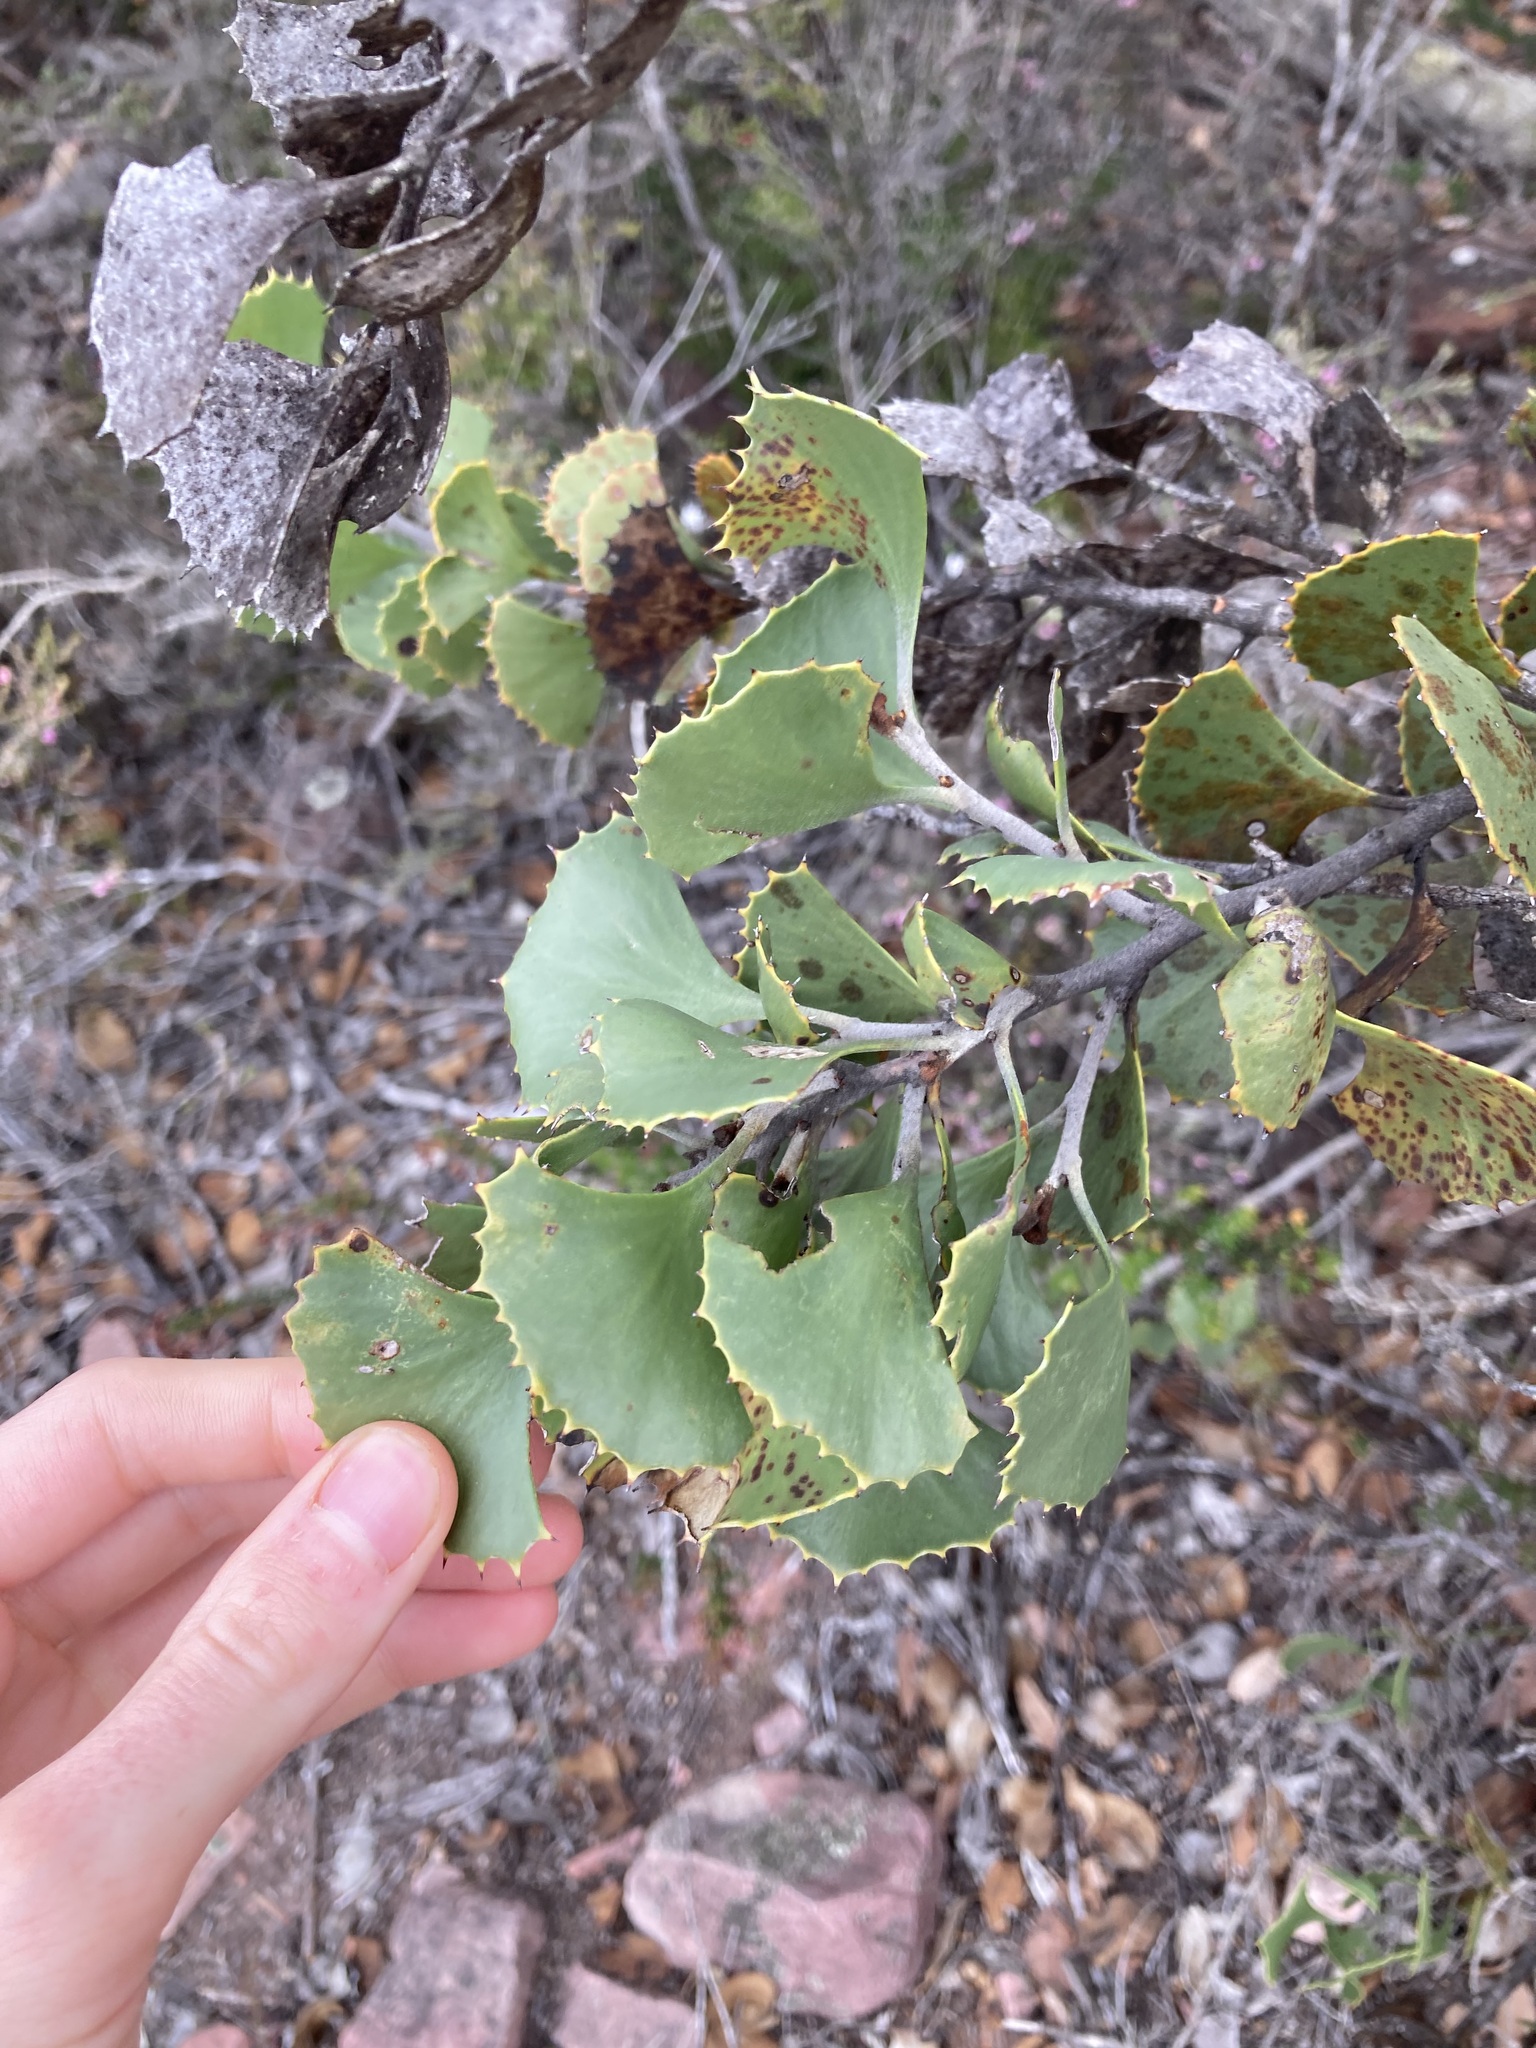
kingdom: Plantae
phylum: Tracheophyta
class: Magnoliopsida
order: Proteales
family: Proteaceae
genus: Hakea
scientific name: Hakea baxteri
